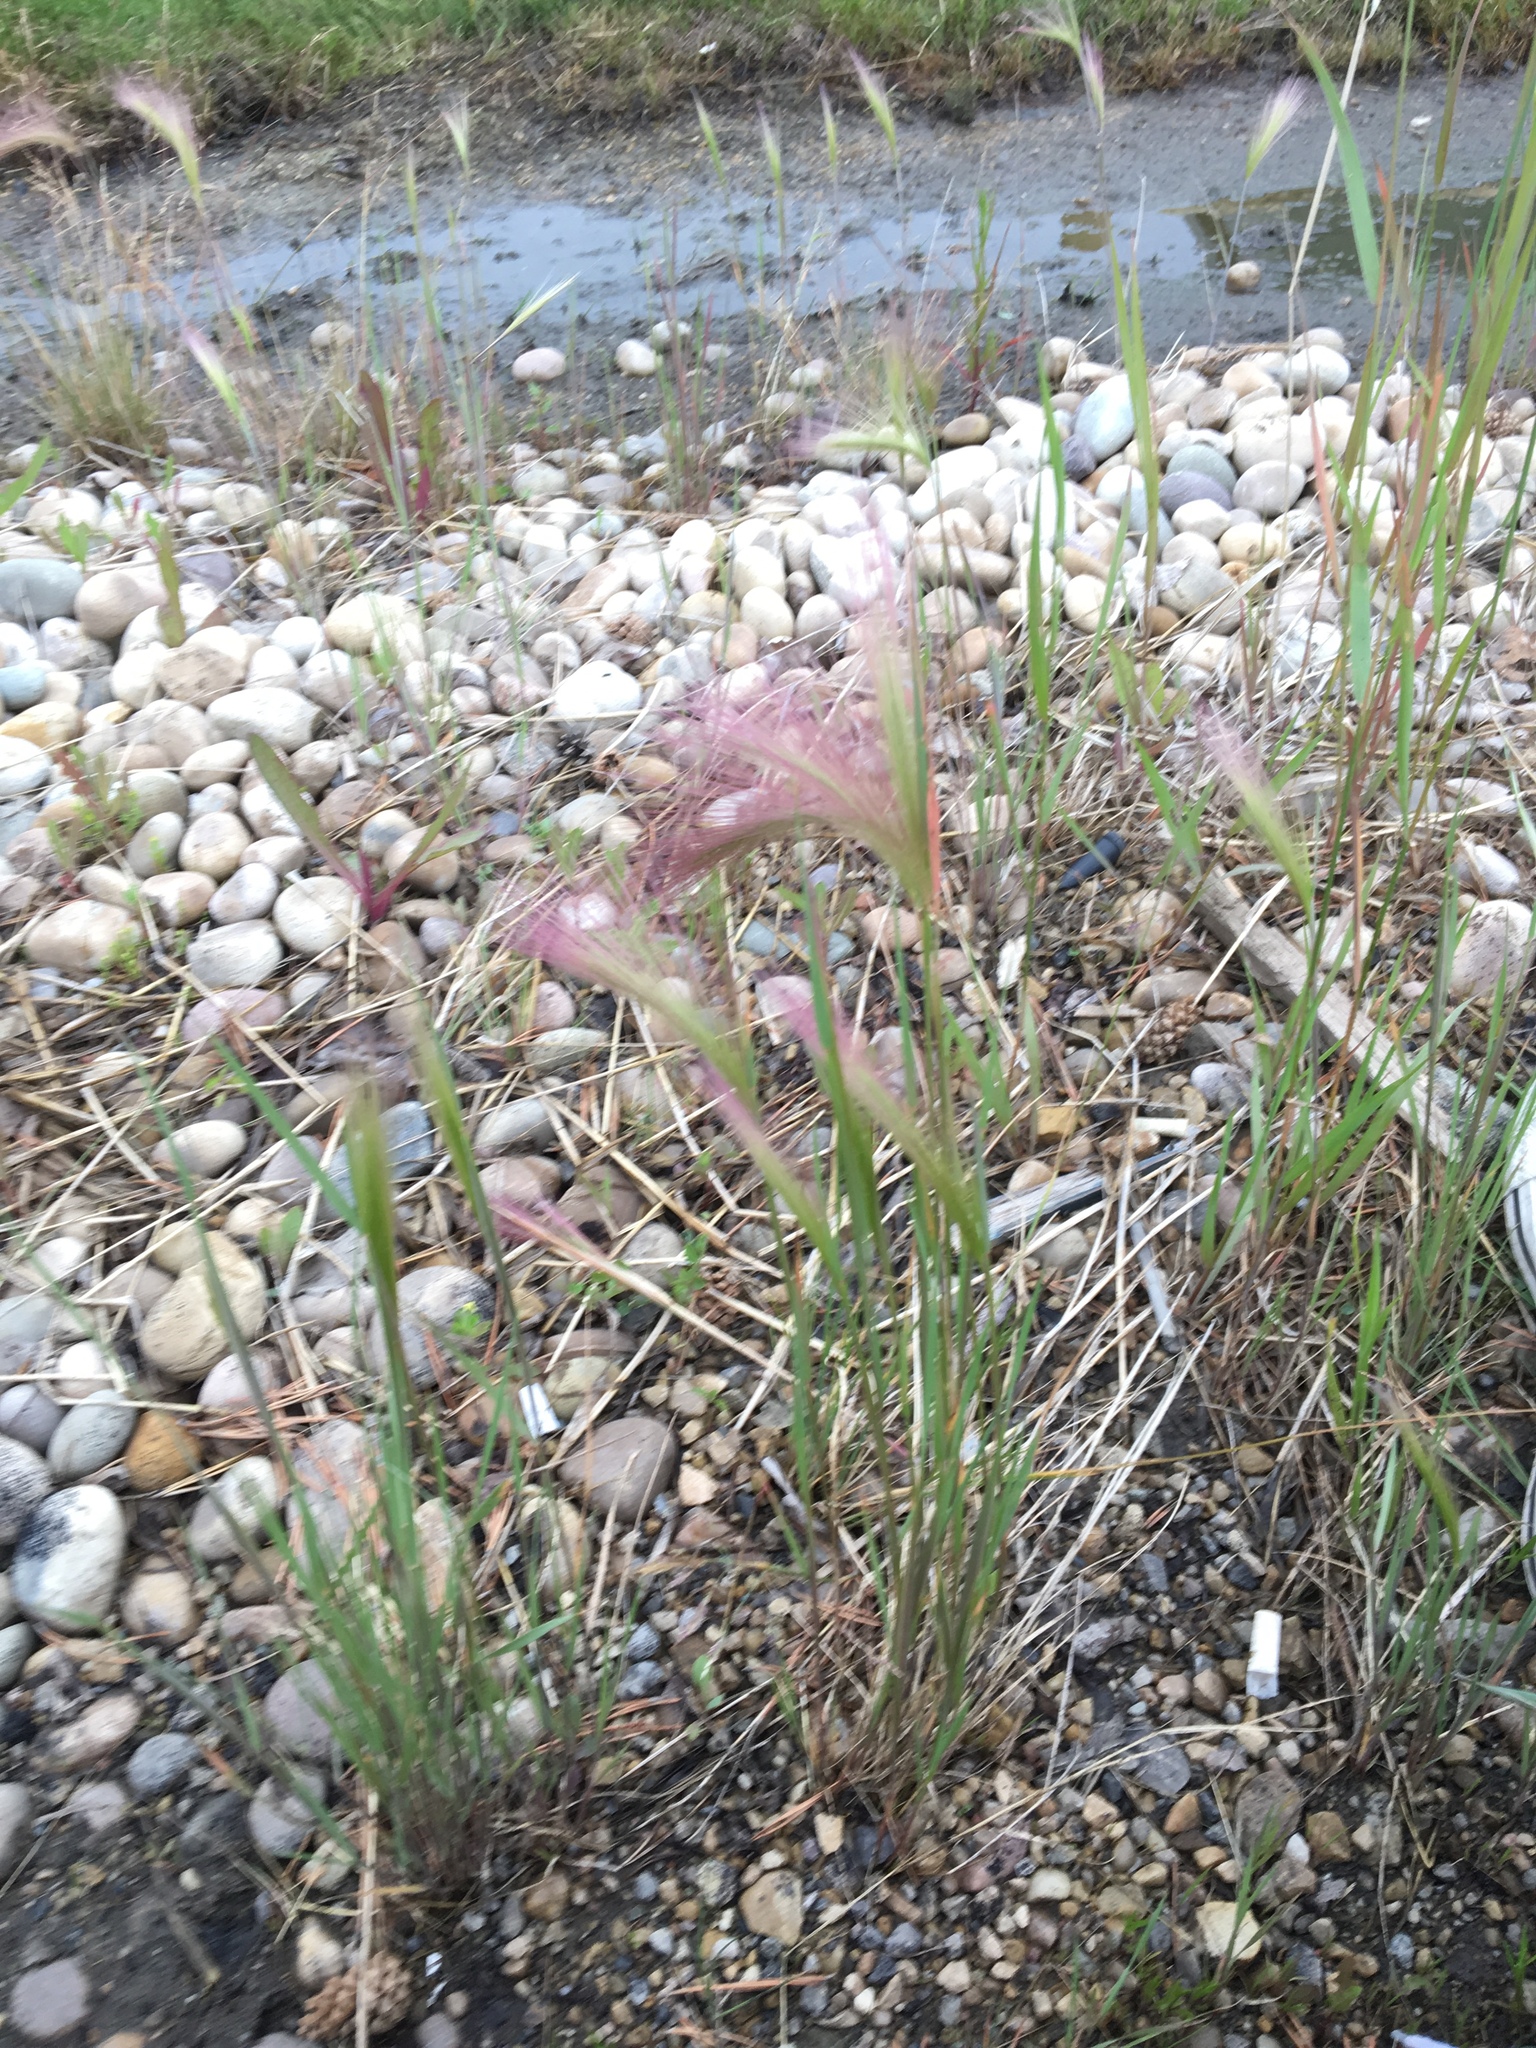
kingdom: Plantae
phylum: Tracheophyta
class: Liliopsida
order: Poales
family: Poaceae
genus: Hordeum
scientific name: Hordeum jubatum
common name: Foxtail barley
